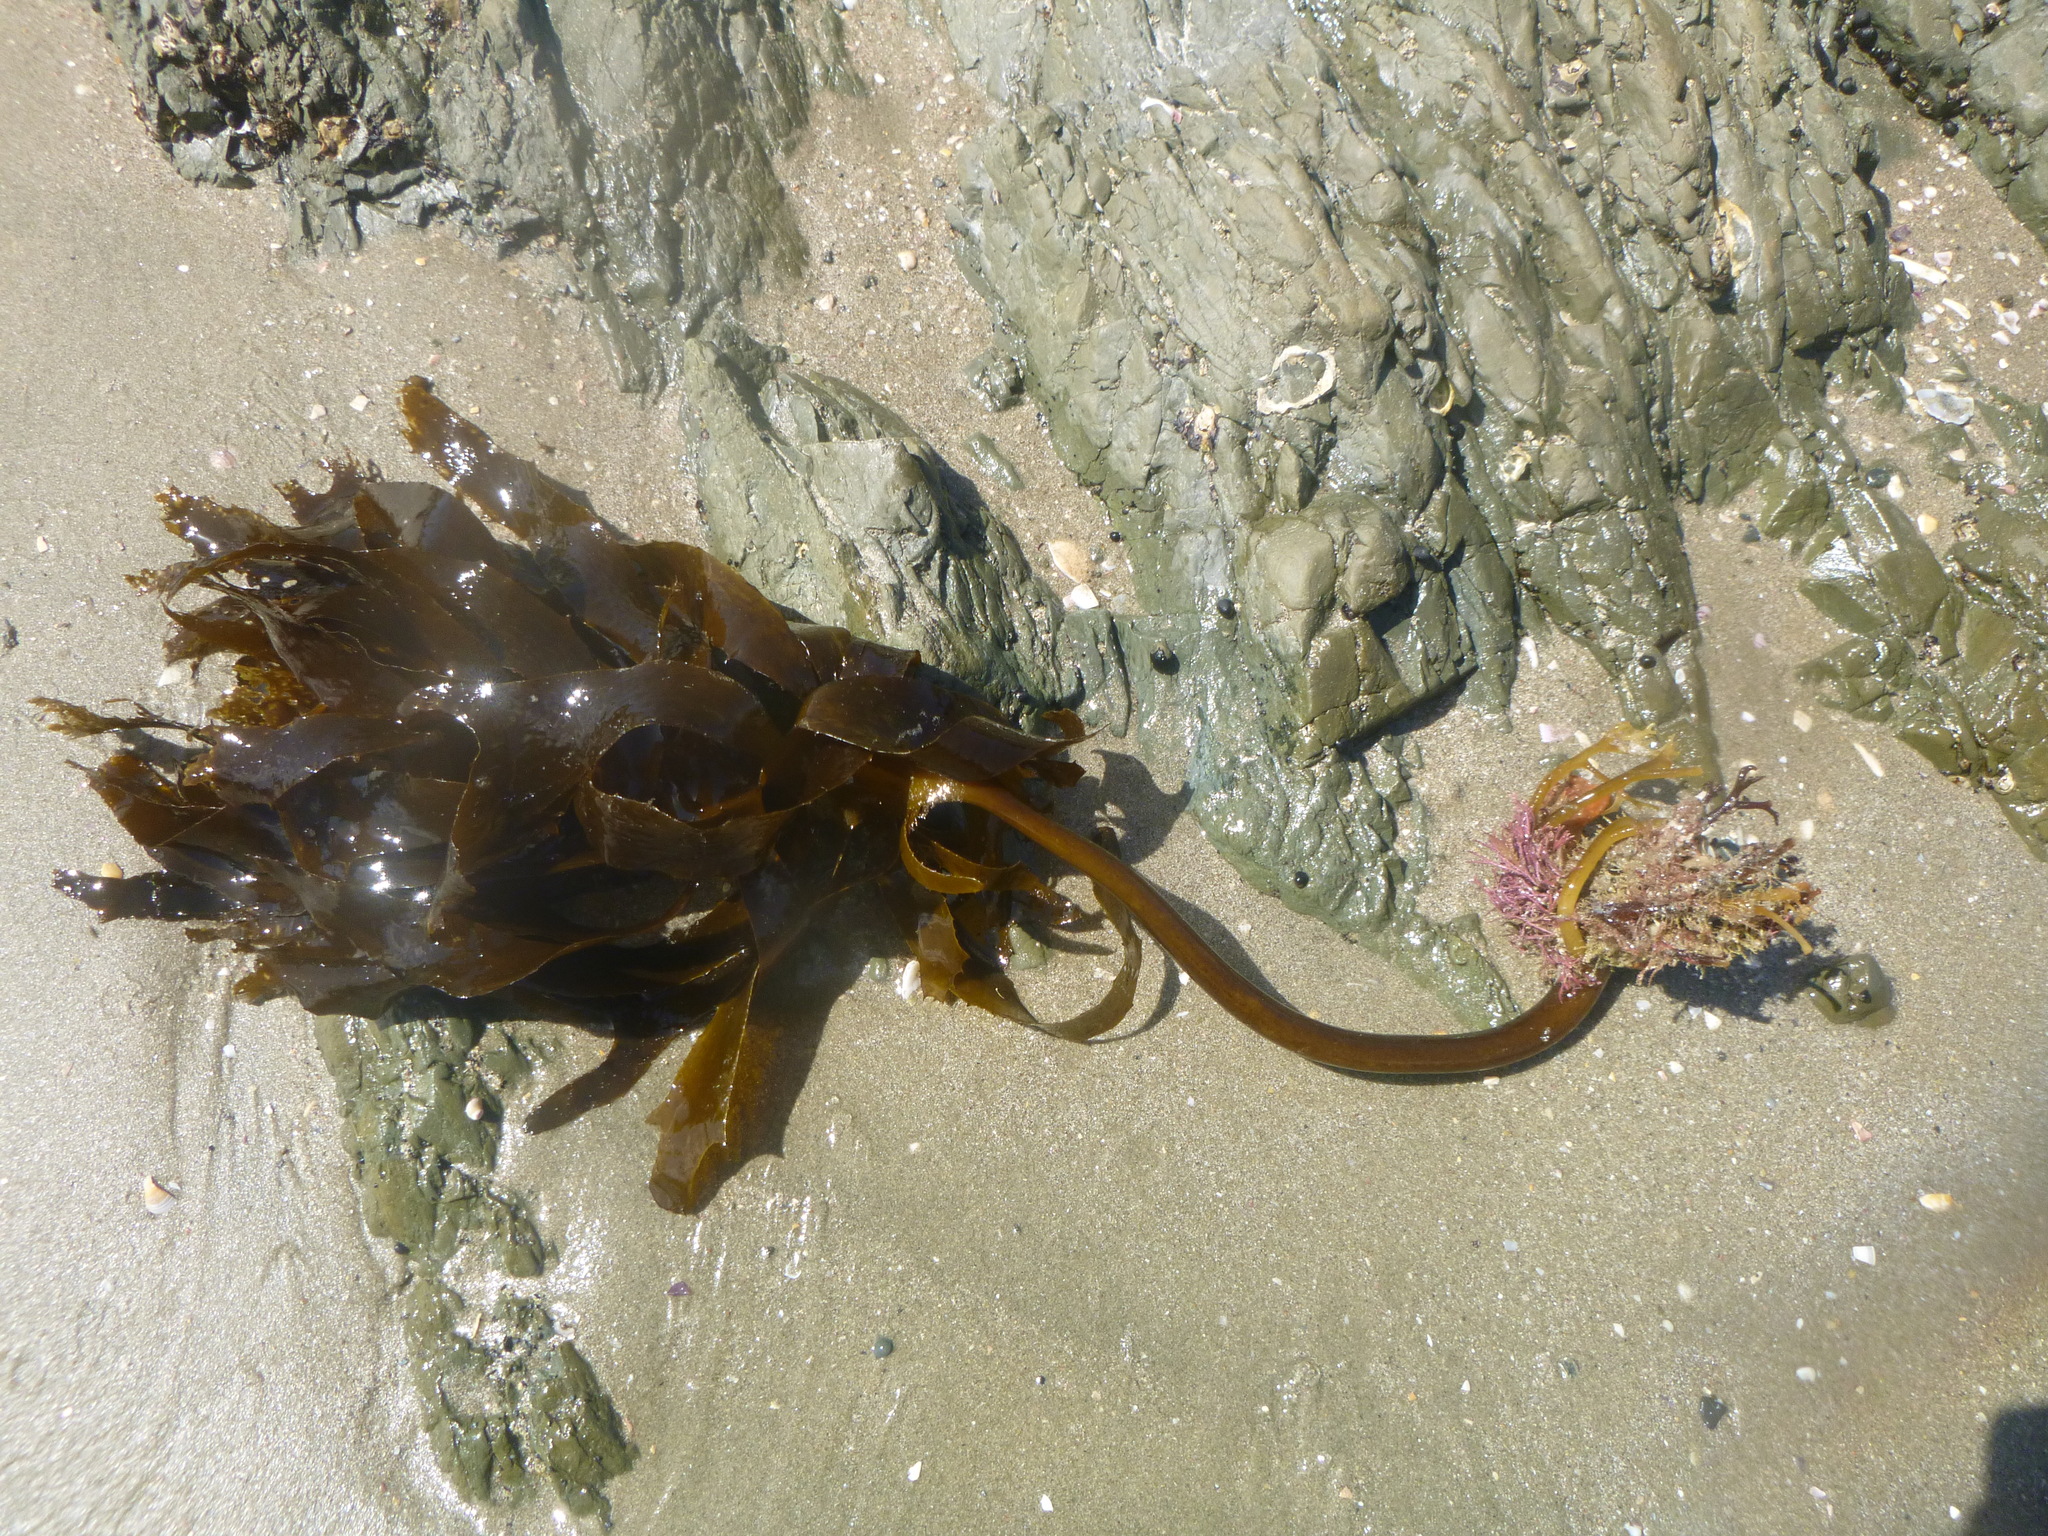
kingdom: Chromista
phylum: Ochrophyta
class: Phaeophyceae
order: Laminariales
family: Lessoniaceae
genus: Ecklonia
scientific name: Ecklonia radiata
